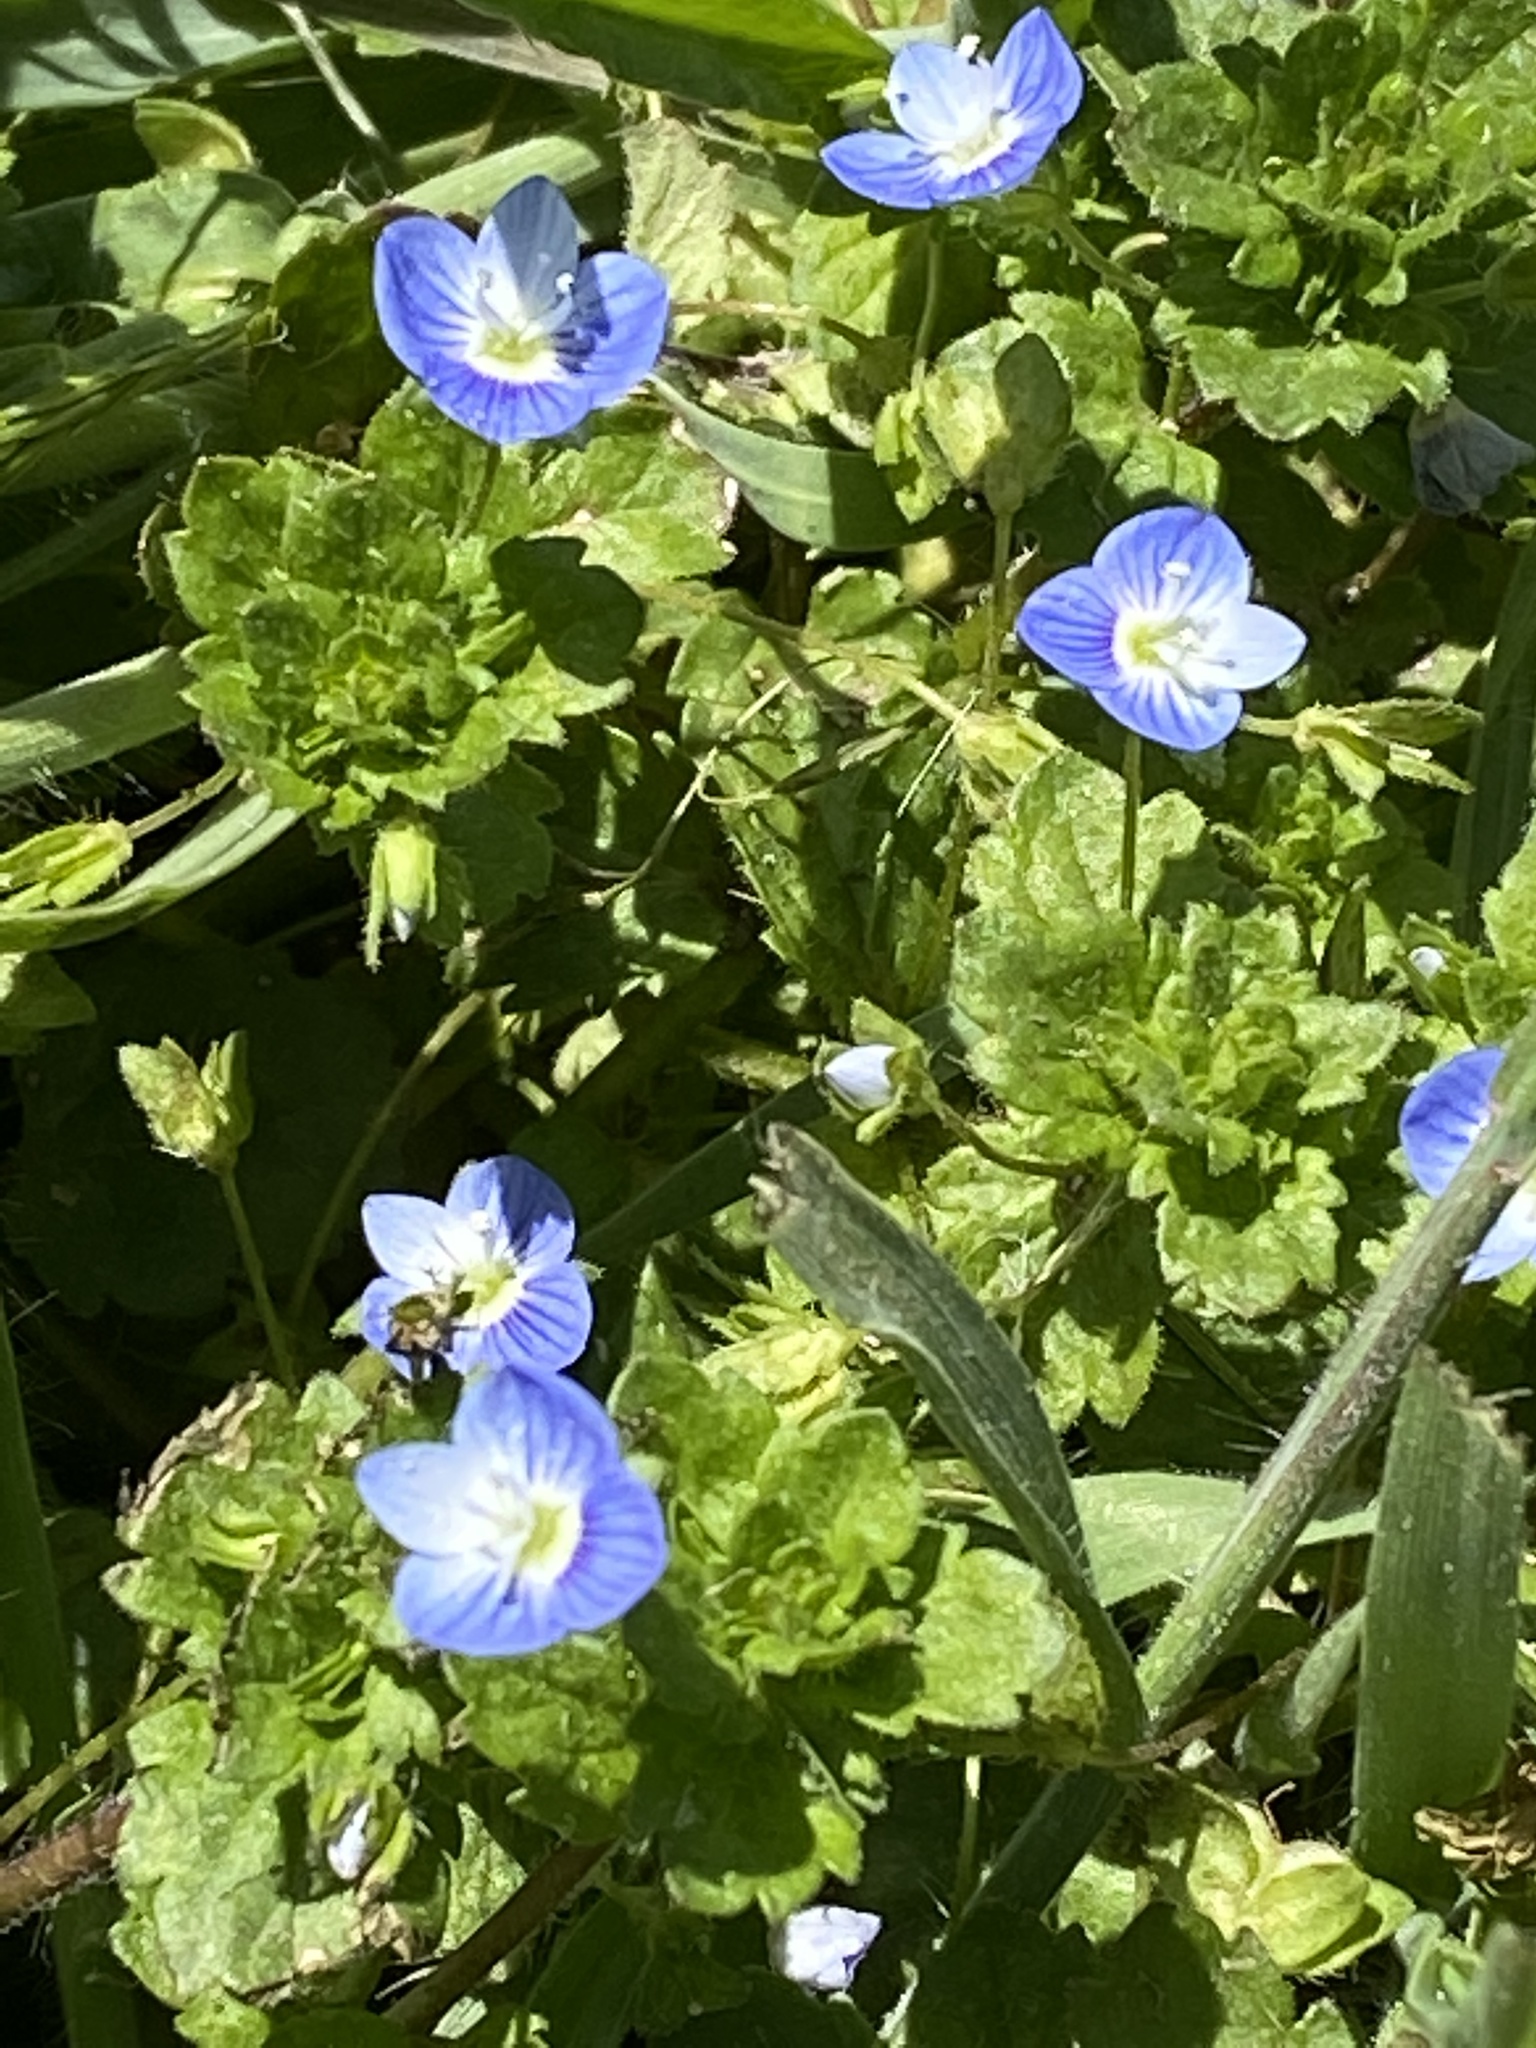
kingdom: Plantae
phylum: Tracheophyta
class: Magnoliopsida
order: Lamiales
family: Plantaginaceae
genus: Veronica
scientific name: Veronica persica
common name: Common field-speedwell
